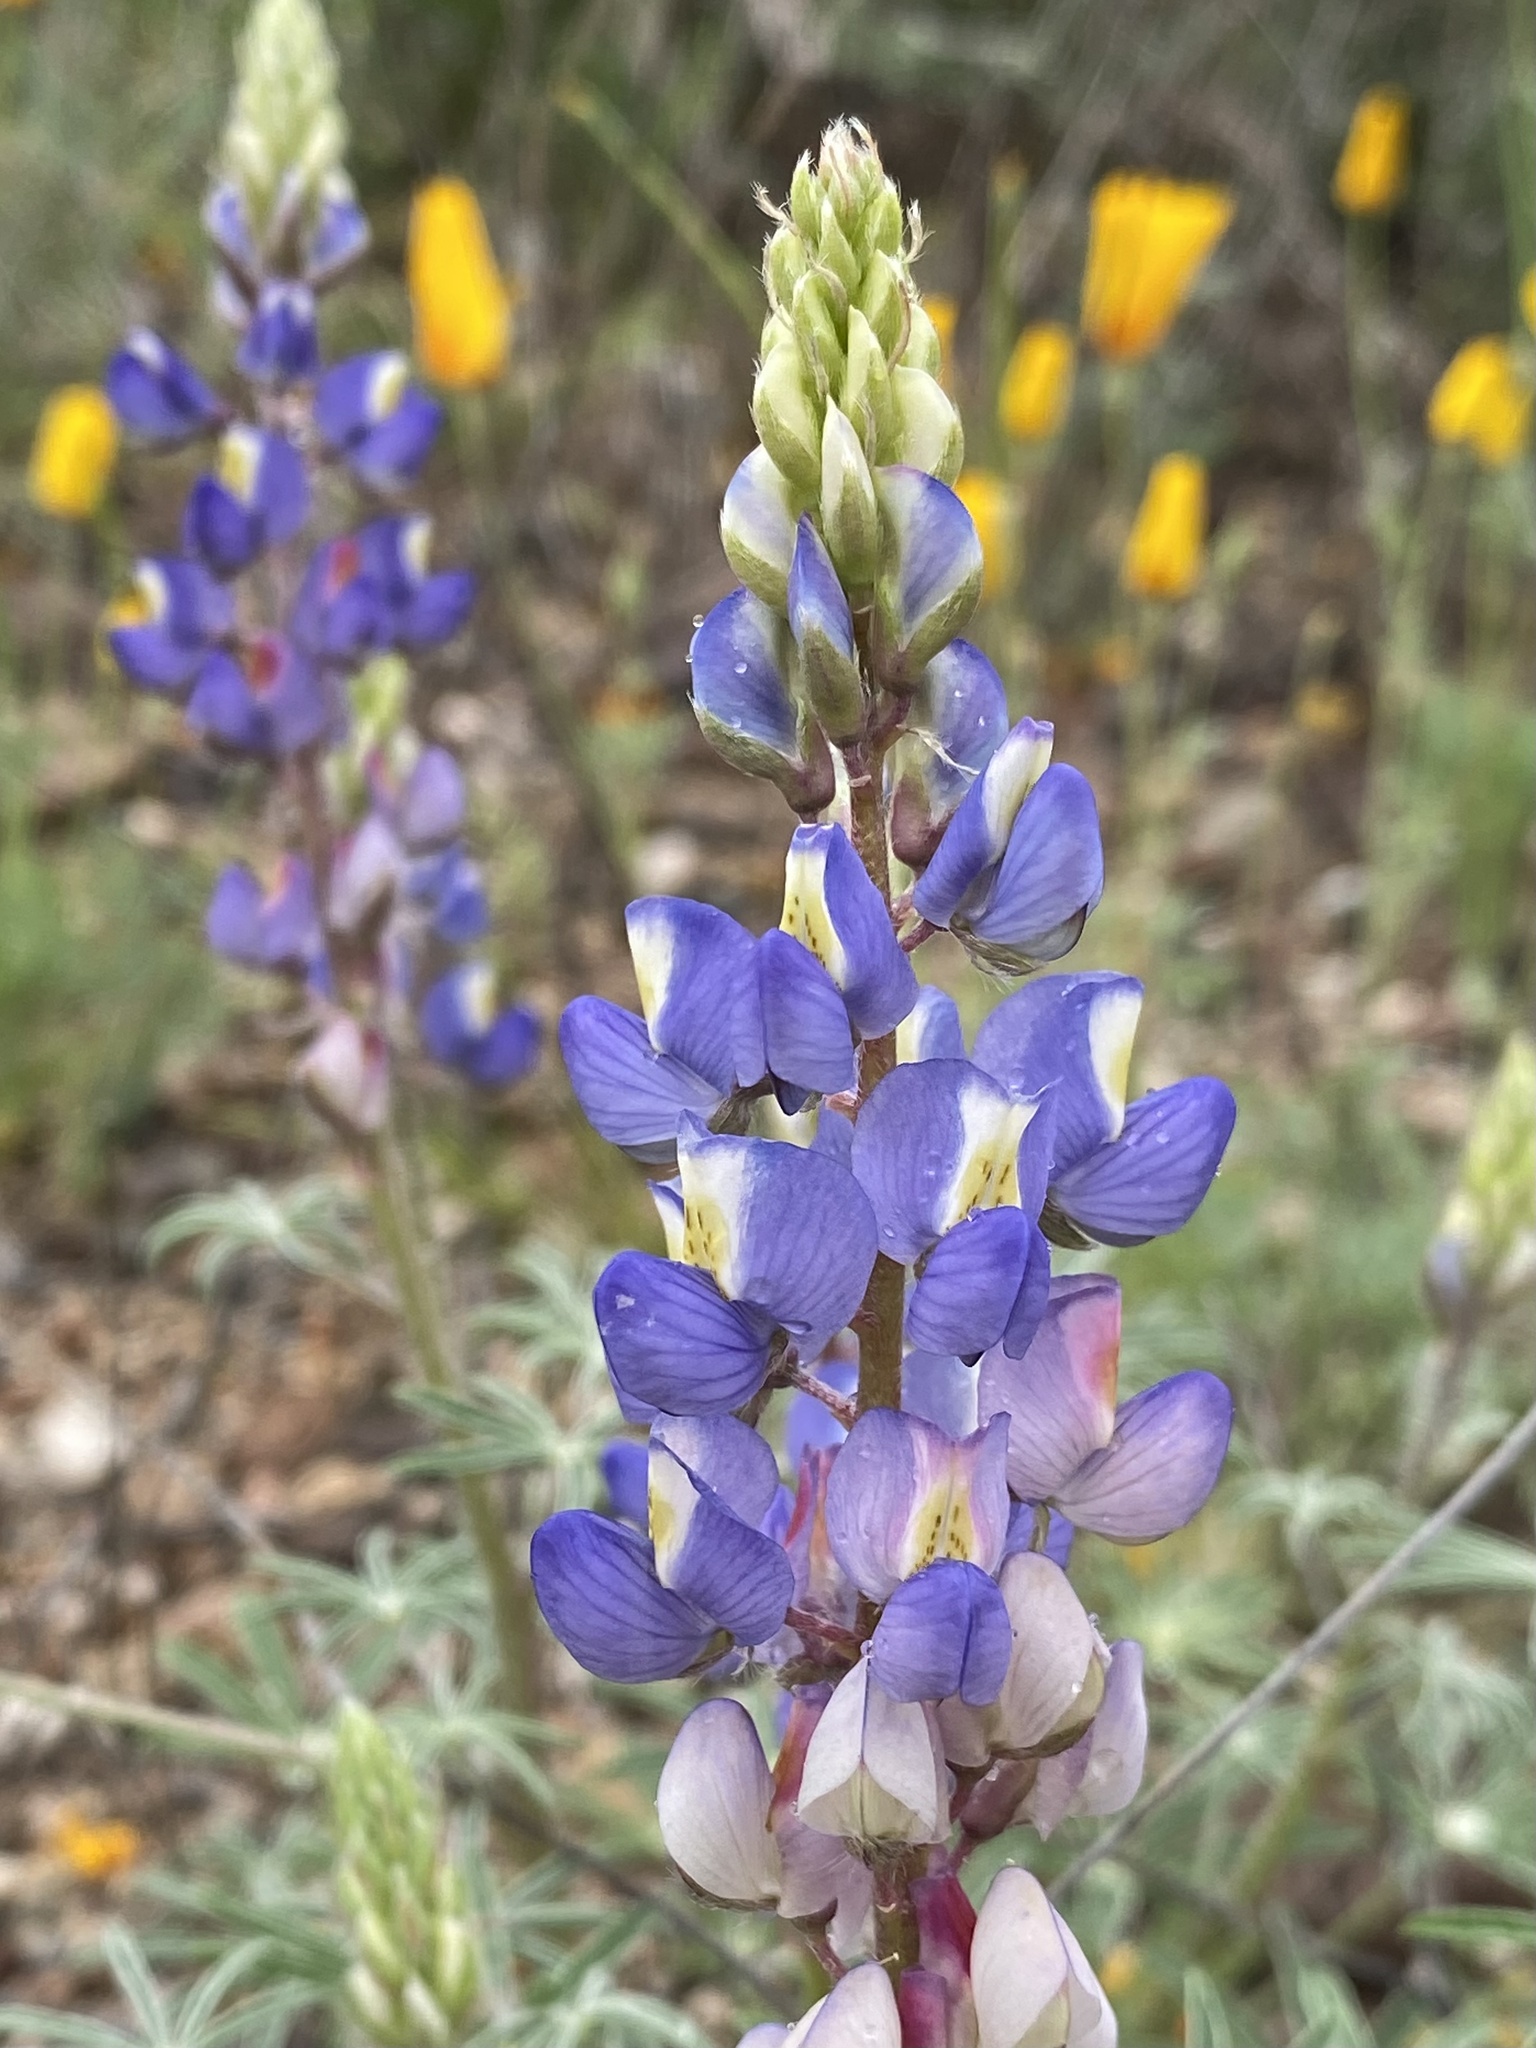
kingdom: Plantae
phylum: Tracheophyta
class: Magnoliopsida
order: Fabales
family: Fabaceae
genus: Lupinus
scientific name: Lupinus sparsiflorus
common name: Coulter's lupine
